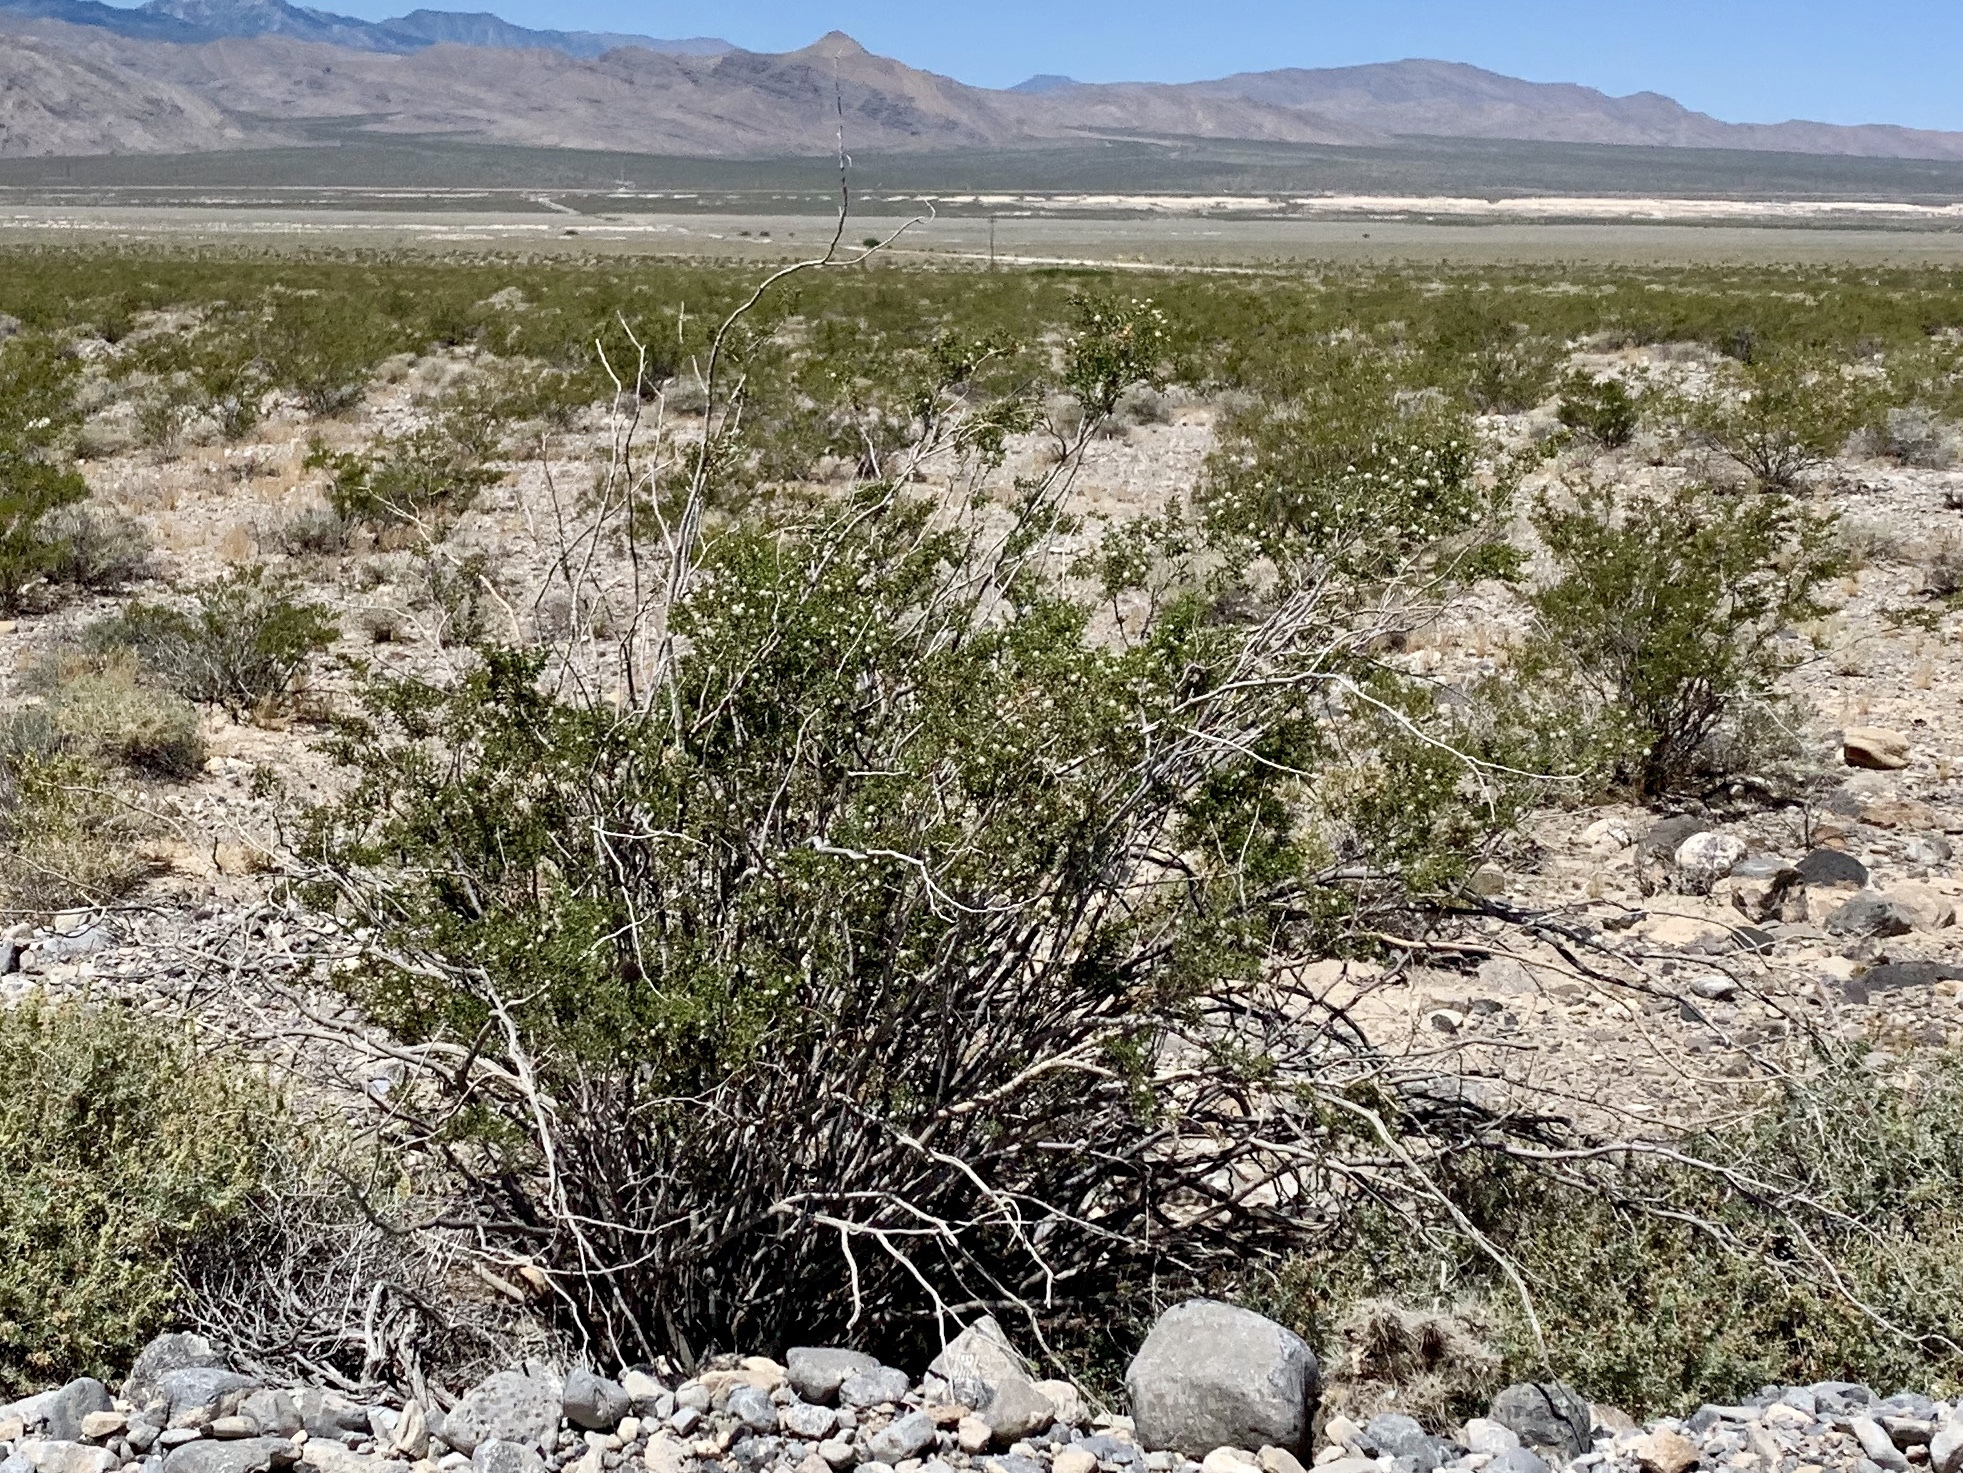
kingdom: Plantae
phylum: Tracheophyta
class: Magnoliopsida
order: Zygophyllales
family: Zygophyllaceae
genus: Larrea
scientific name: Larrea tridentata
